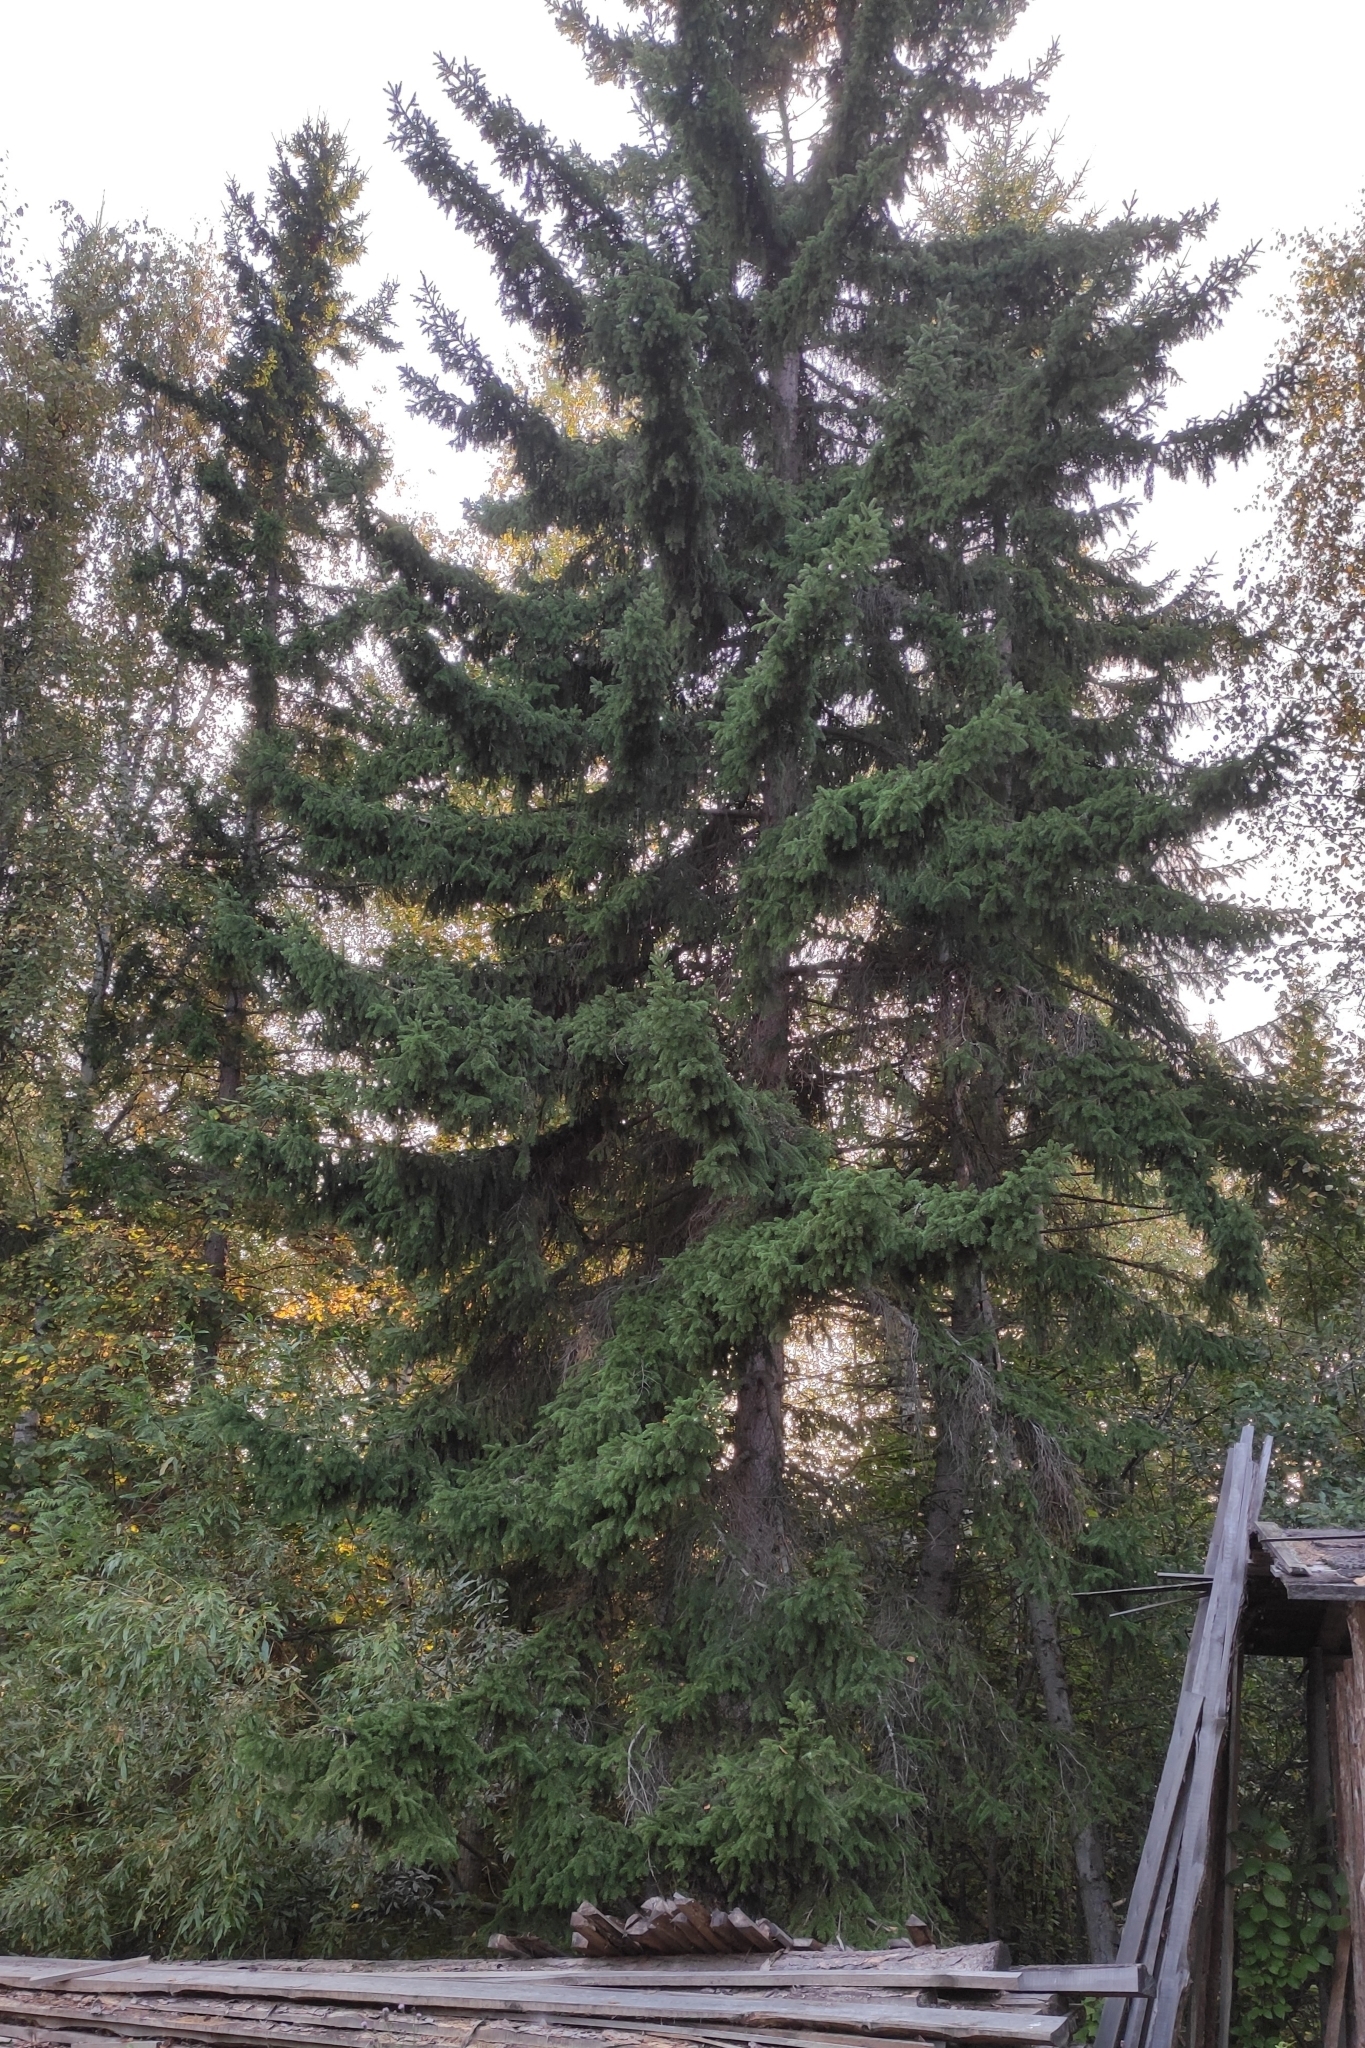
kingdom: Plantae
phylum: Tracheophyta
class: Pinopsida
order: Pinales
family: Pinaceae
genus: Picea
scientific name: Picea obovata
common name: Siberian spruce
